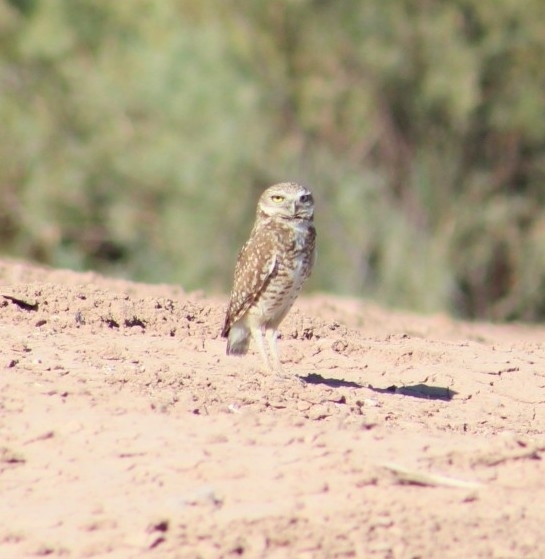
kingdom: Animalia
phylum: Chordata
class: Aves
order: Strigiformes
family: Strigidae
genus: Athene
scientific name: Athene cunicularia
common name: Burrowing owl
